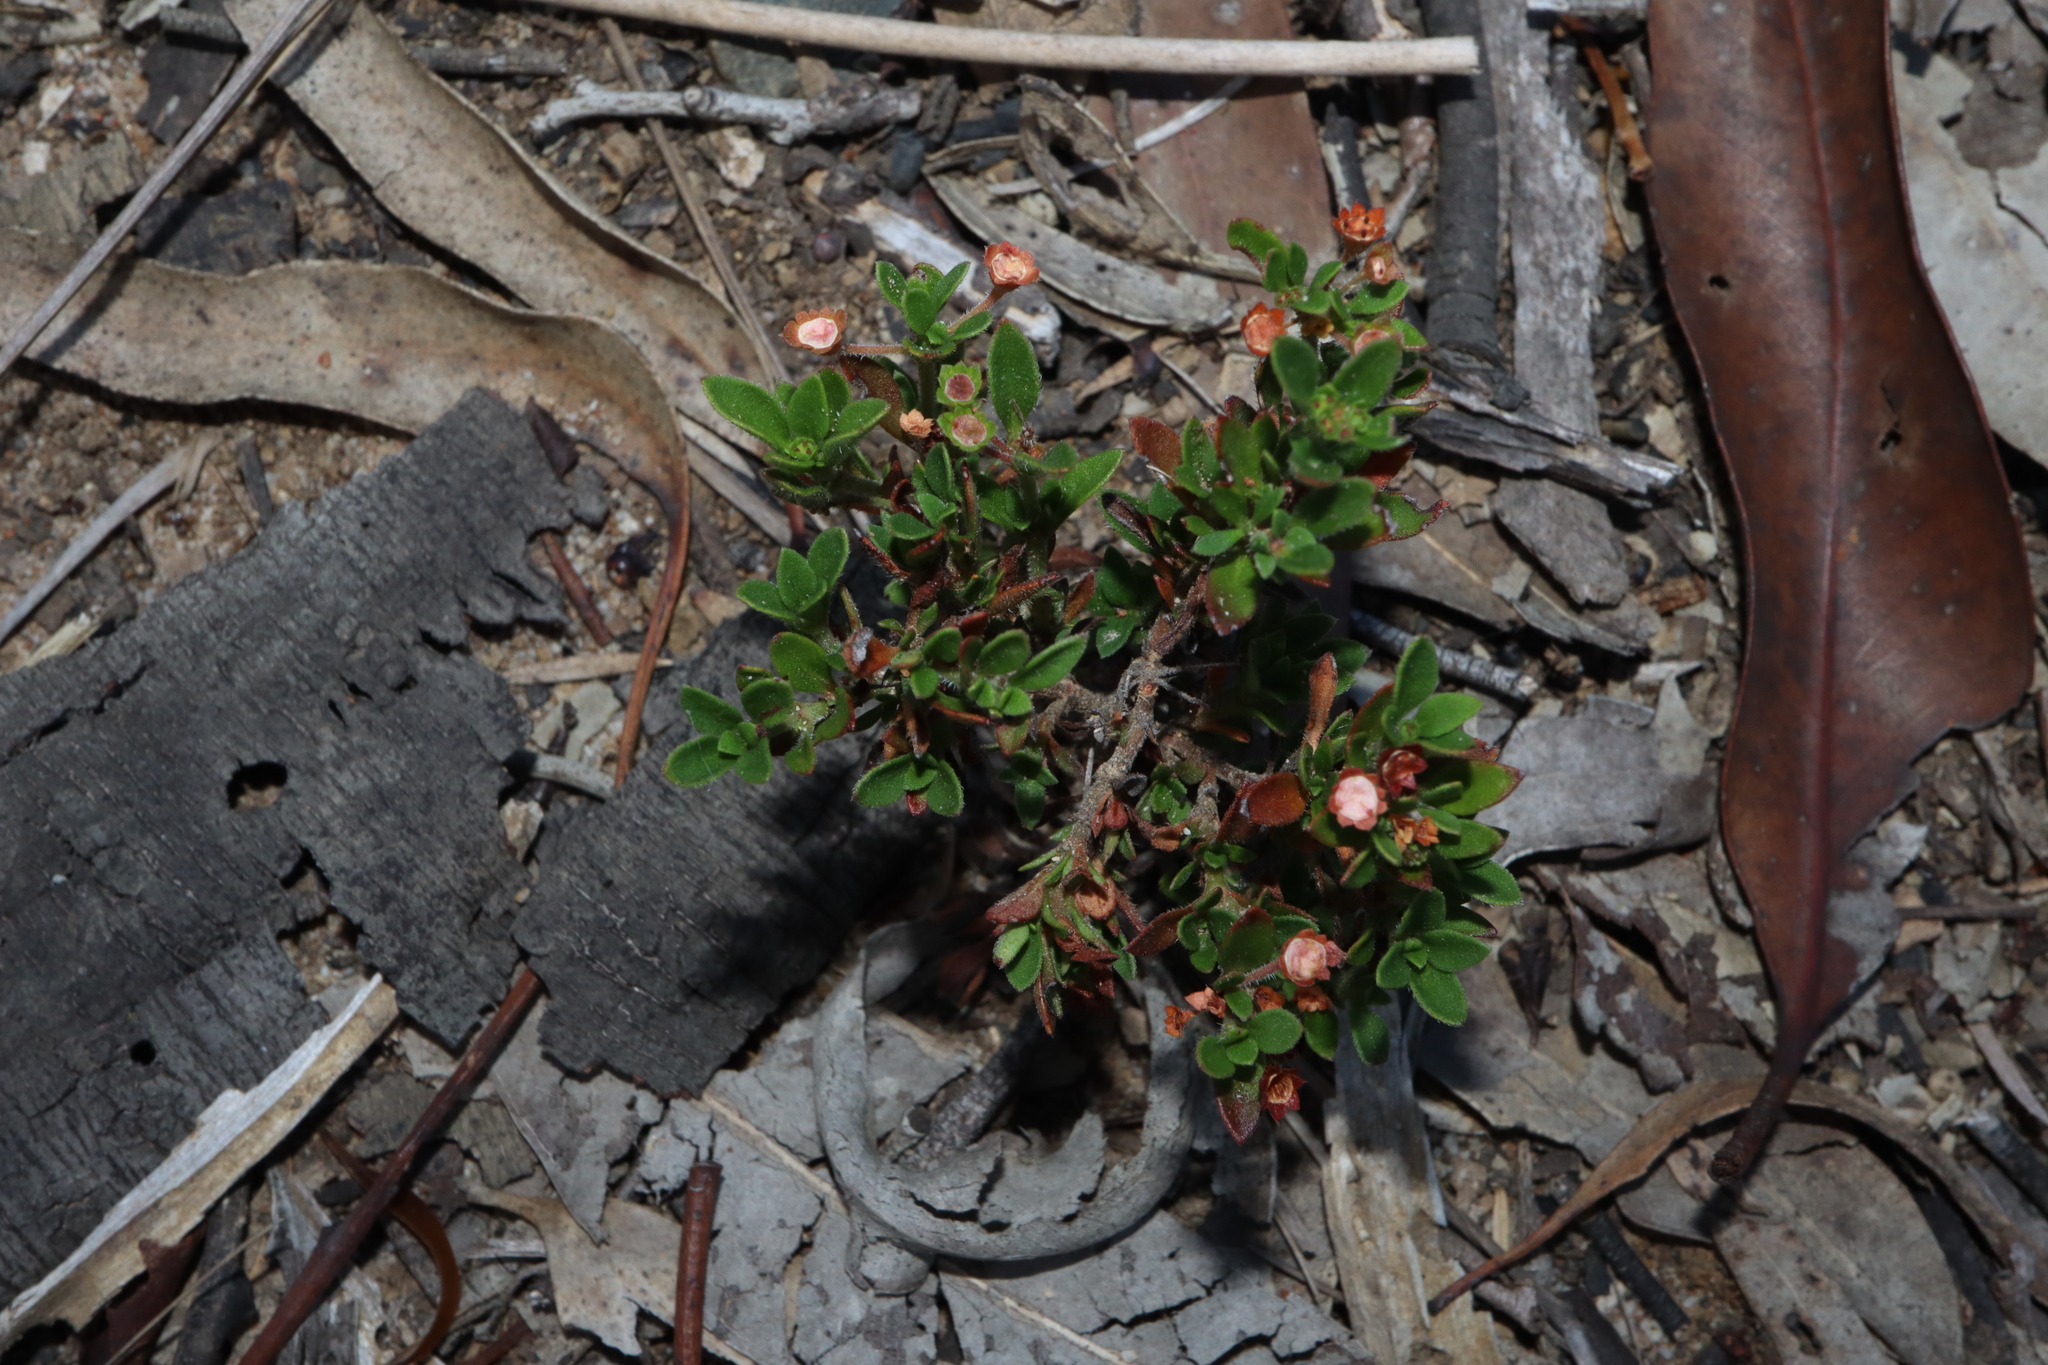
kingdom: Plantae
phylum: Tracheophyta
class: Magnoliopsida
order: Gentianales
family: Rubiaceae
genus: Pomax
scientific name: Pomax umbellata
